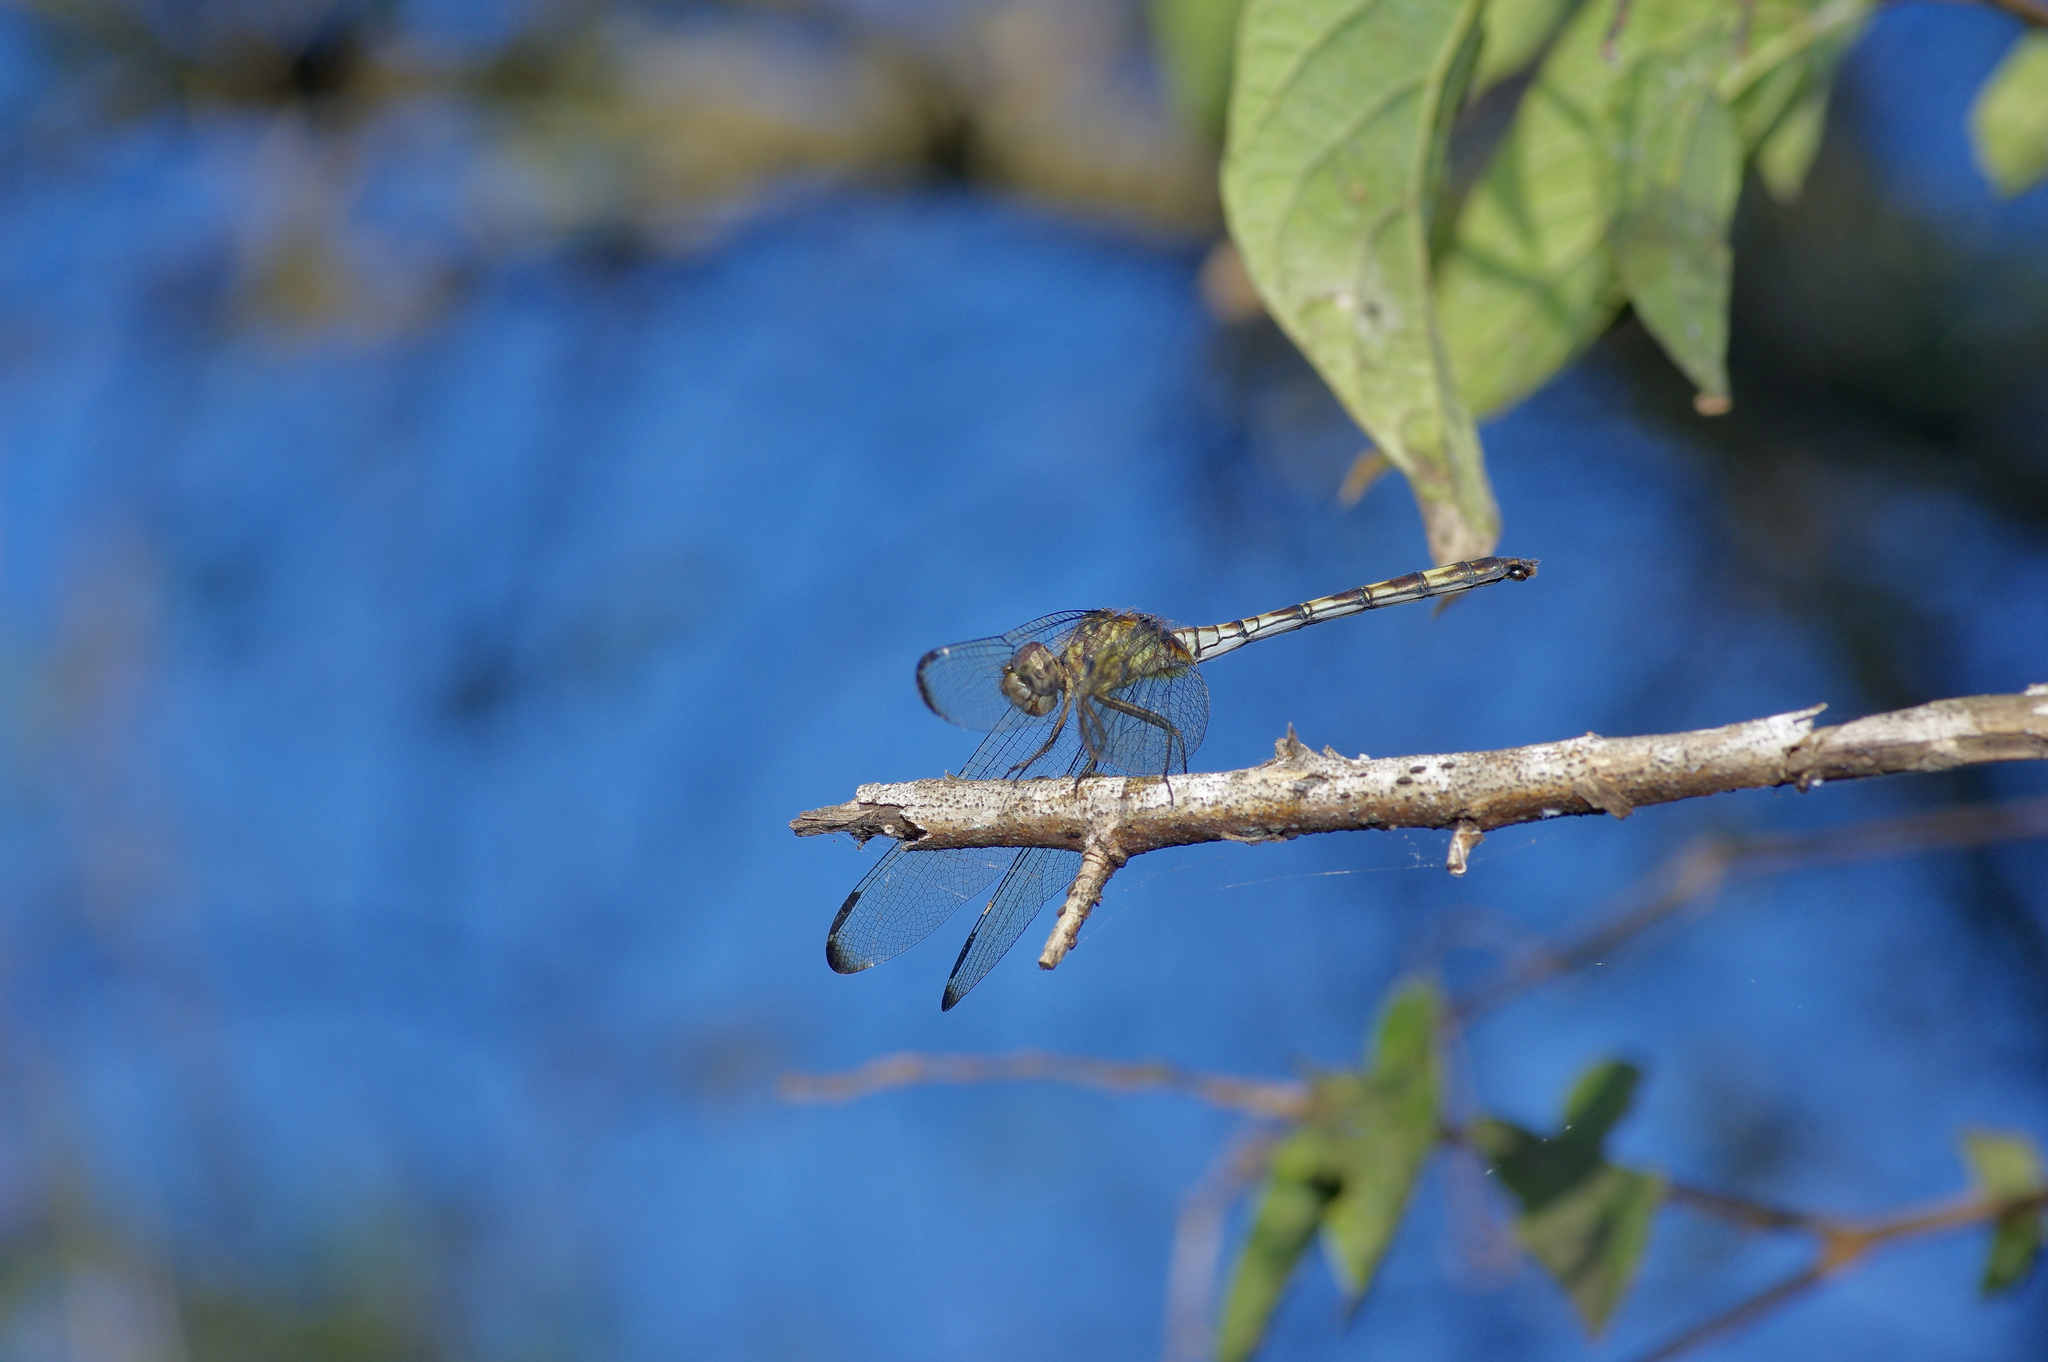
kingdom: Animalia
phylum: Arthropoda
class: Insecta
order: Odonata
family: Libellulidae
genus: Dythemis
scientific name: Dythemis nigrescens
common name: Black setwing
